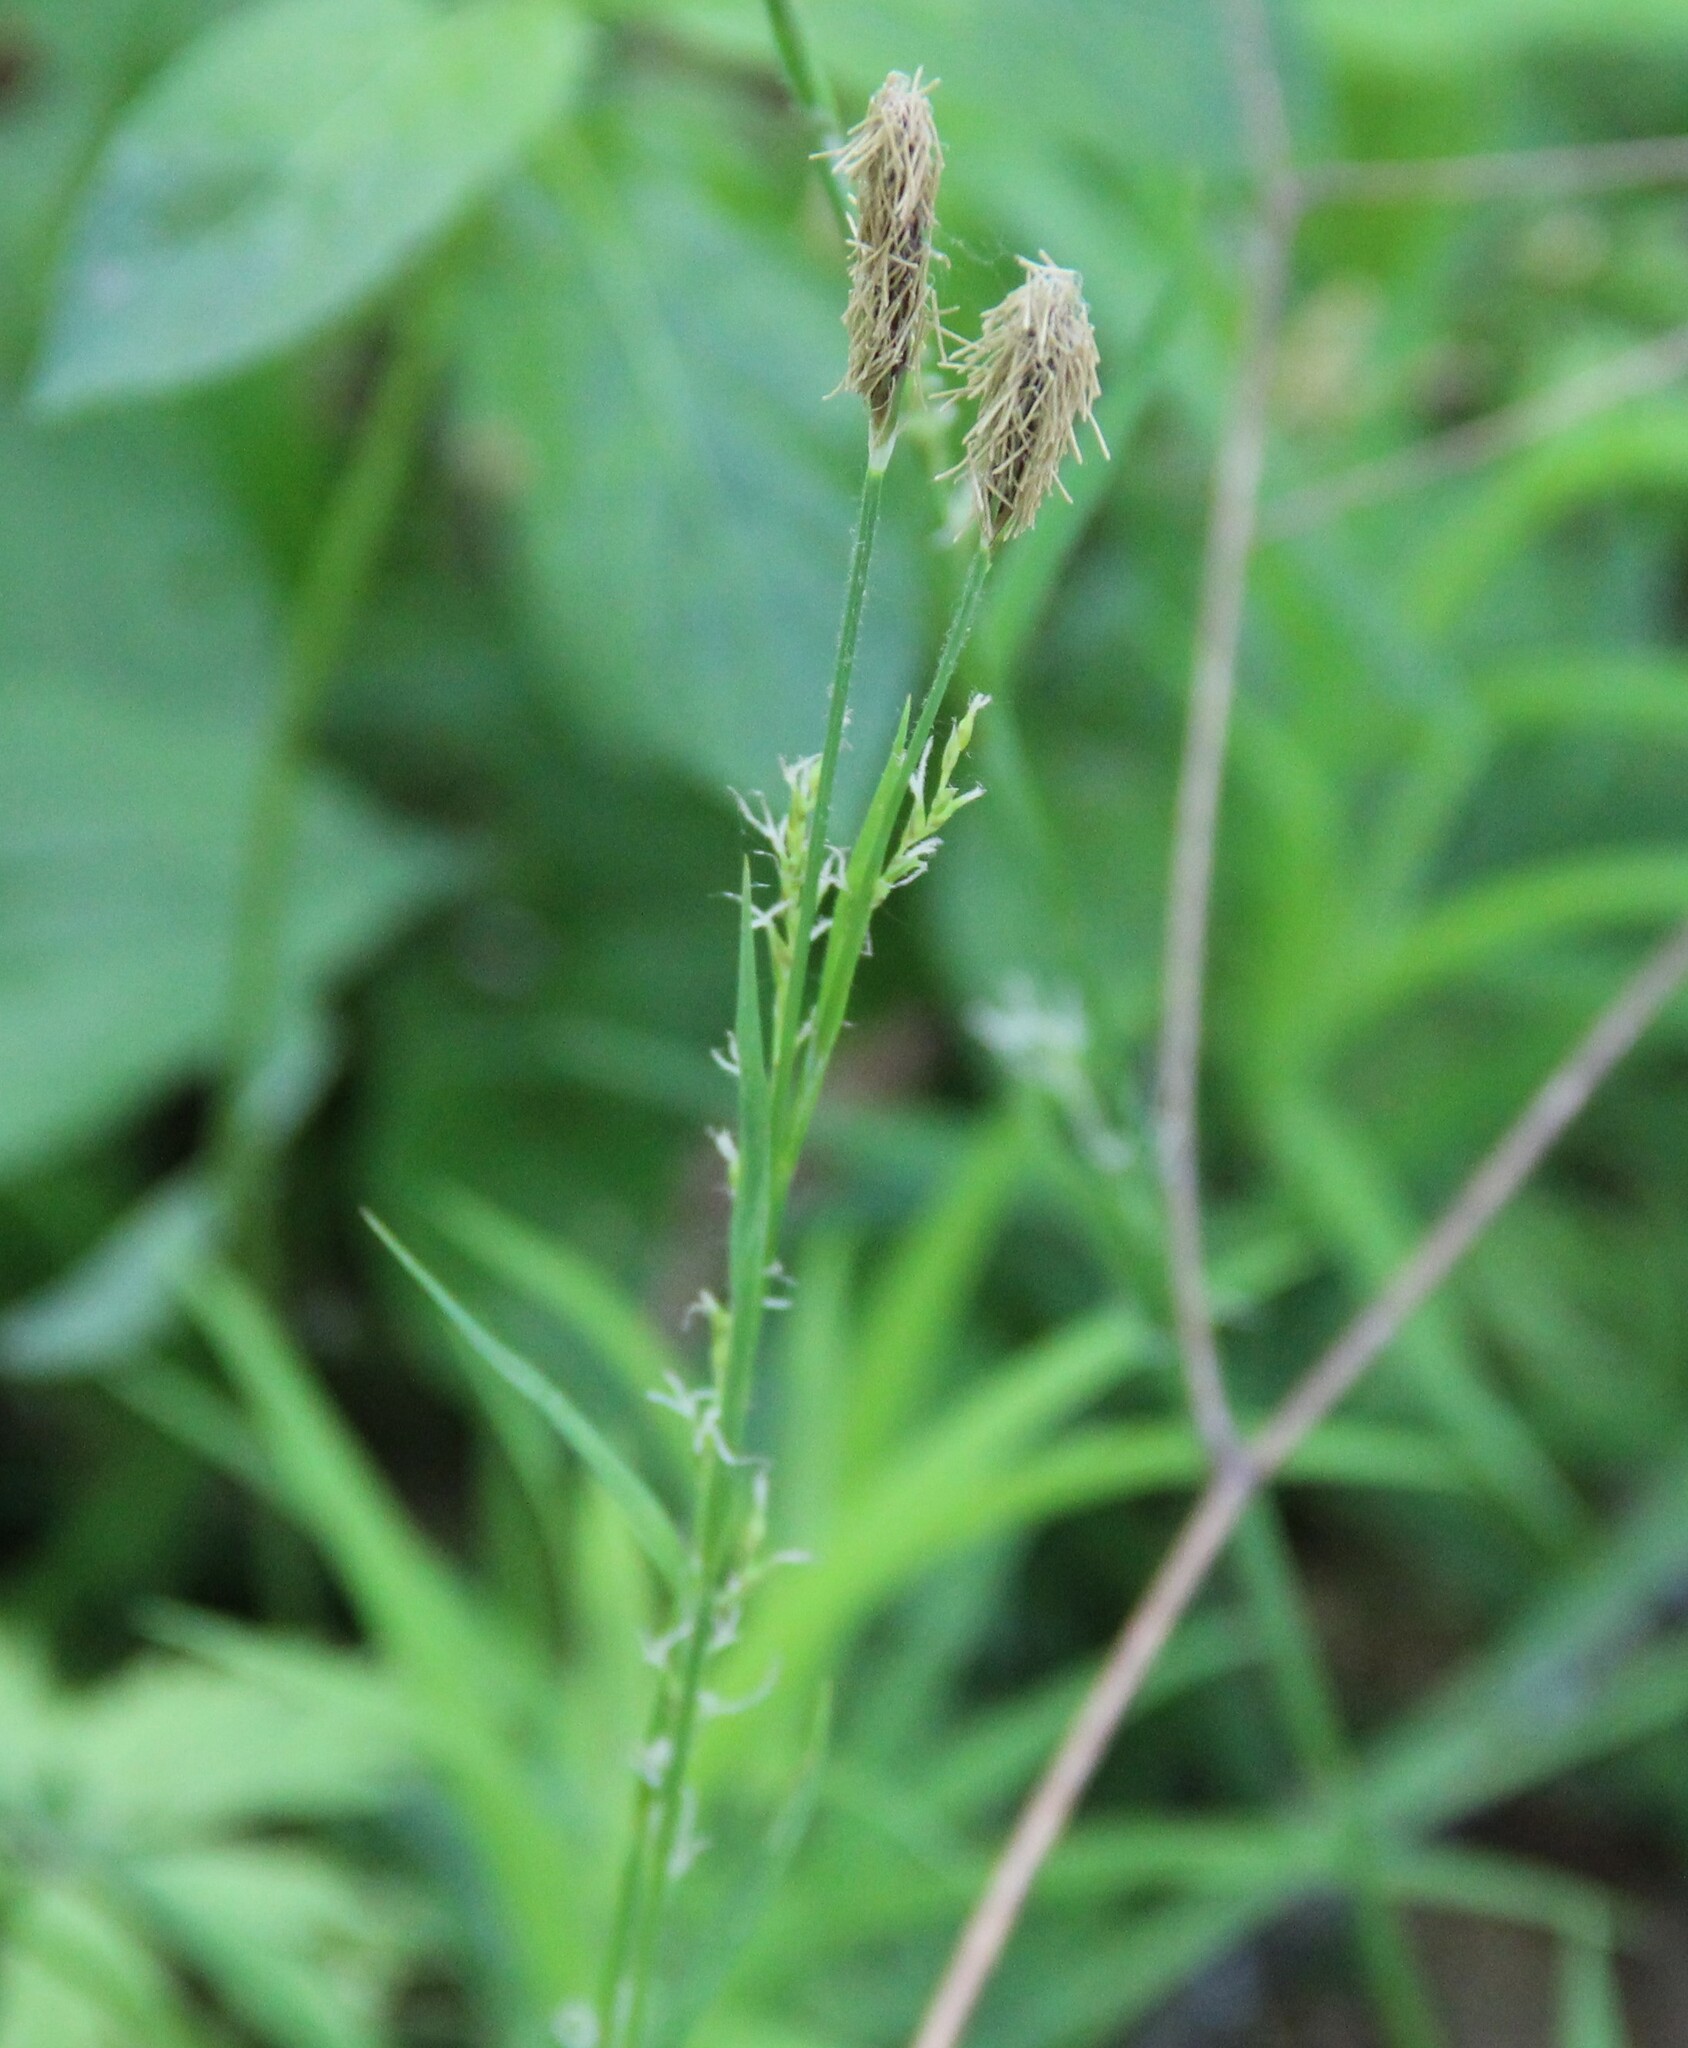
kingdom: Plantae
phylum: Tracheophyta
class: Liliopsida
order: Poales
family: Cyperaceae
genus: Carex
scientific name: Carex pilosa
